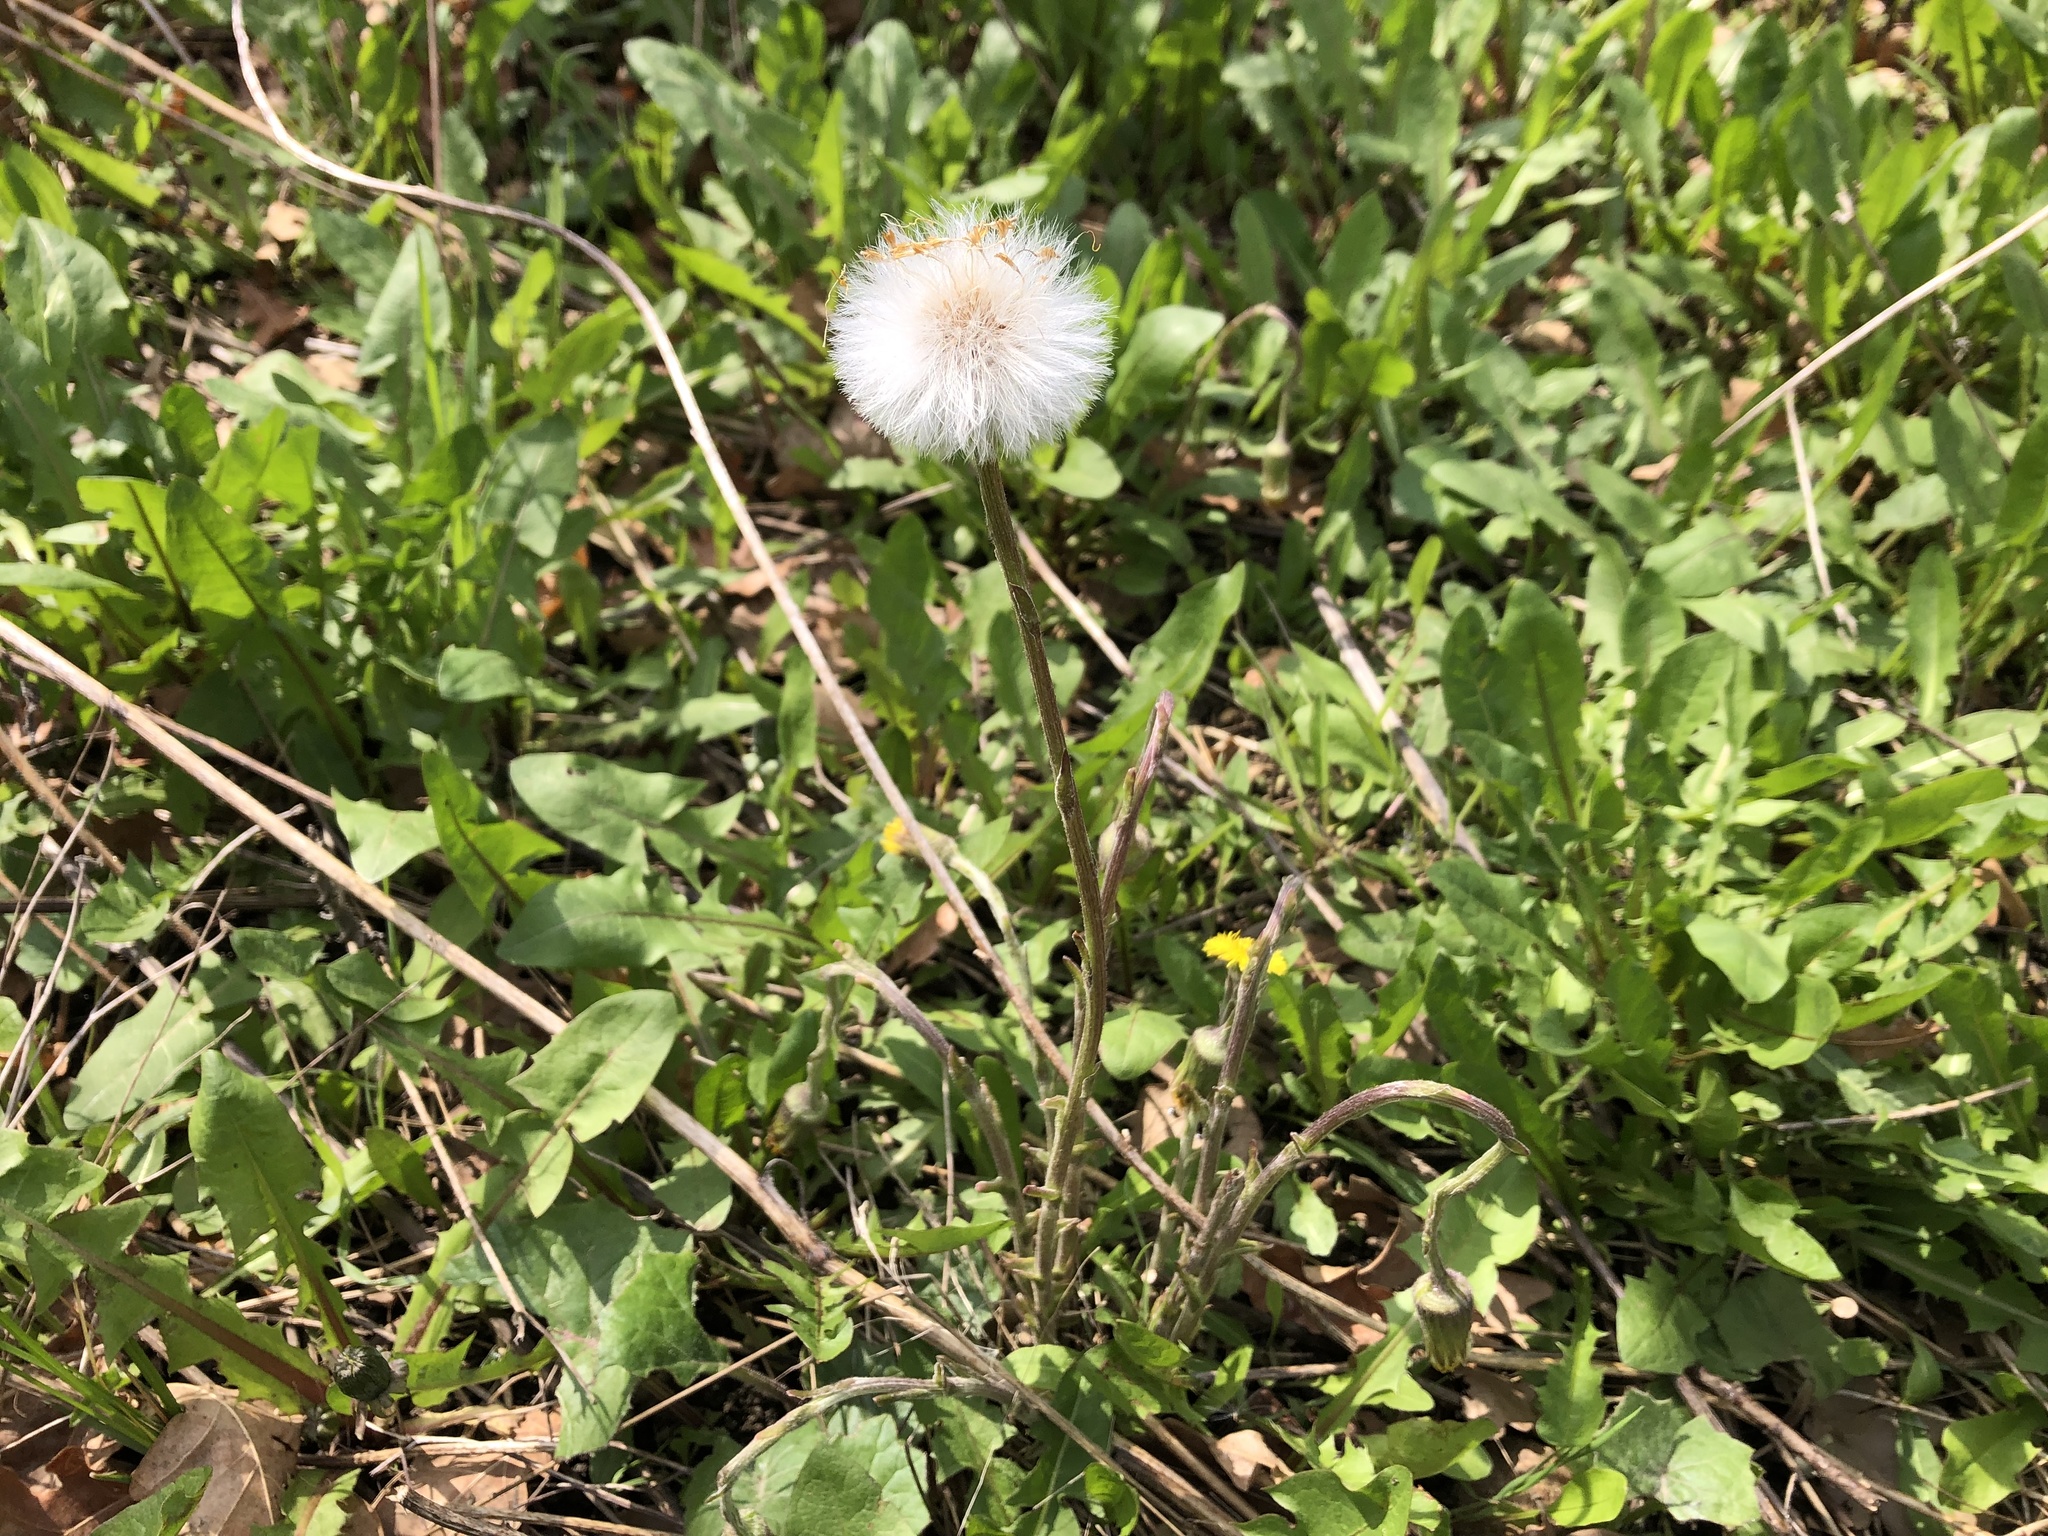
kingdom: Plantae
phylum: Tracheophyta
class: Magnoliopsida
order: Asterales
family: Asteraceae
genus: Tussilago
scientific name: Tussilago farfara
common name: Coltsfoot
